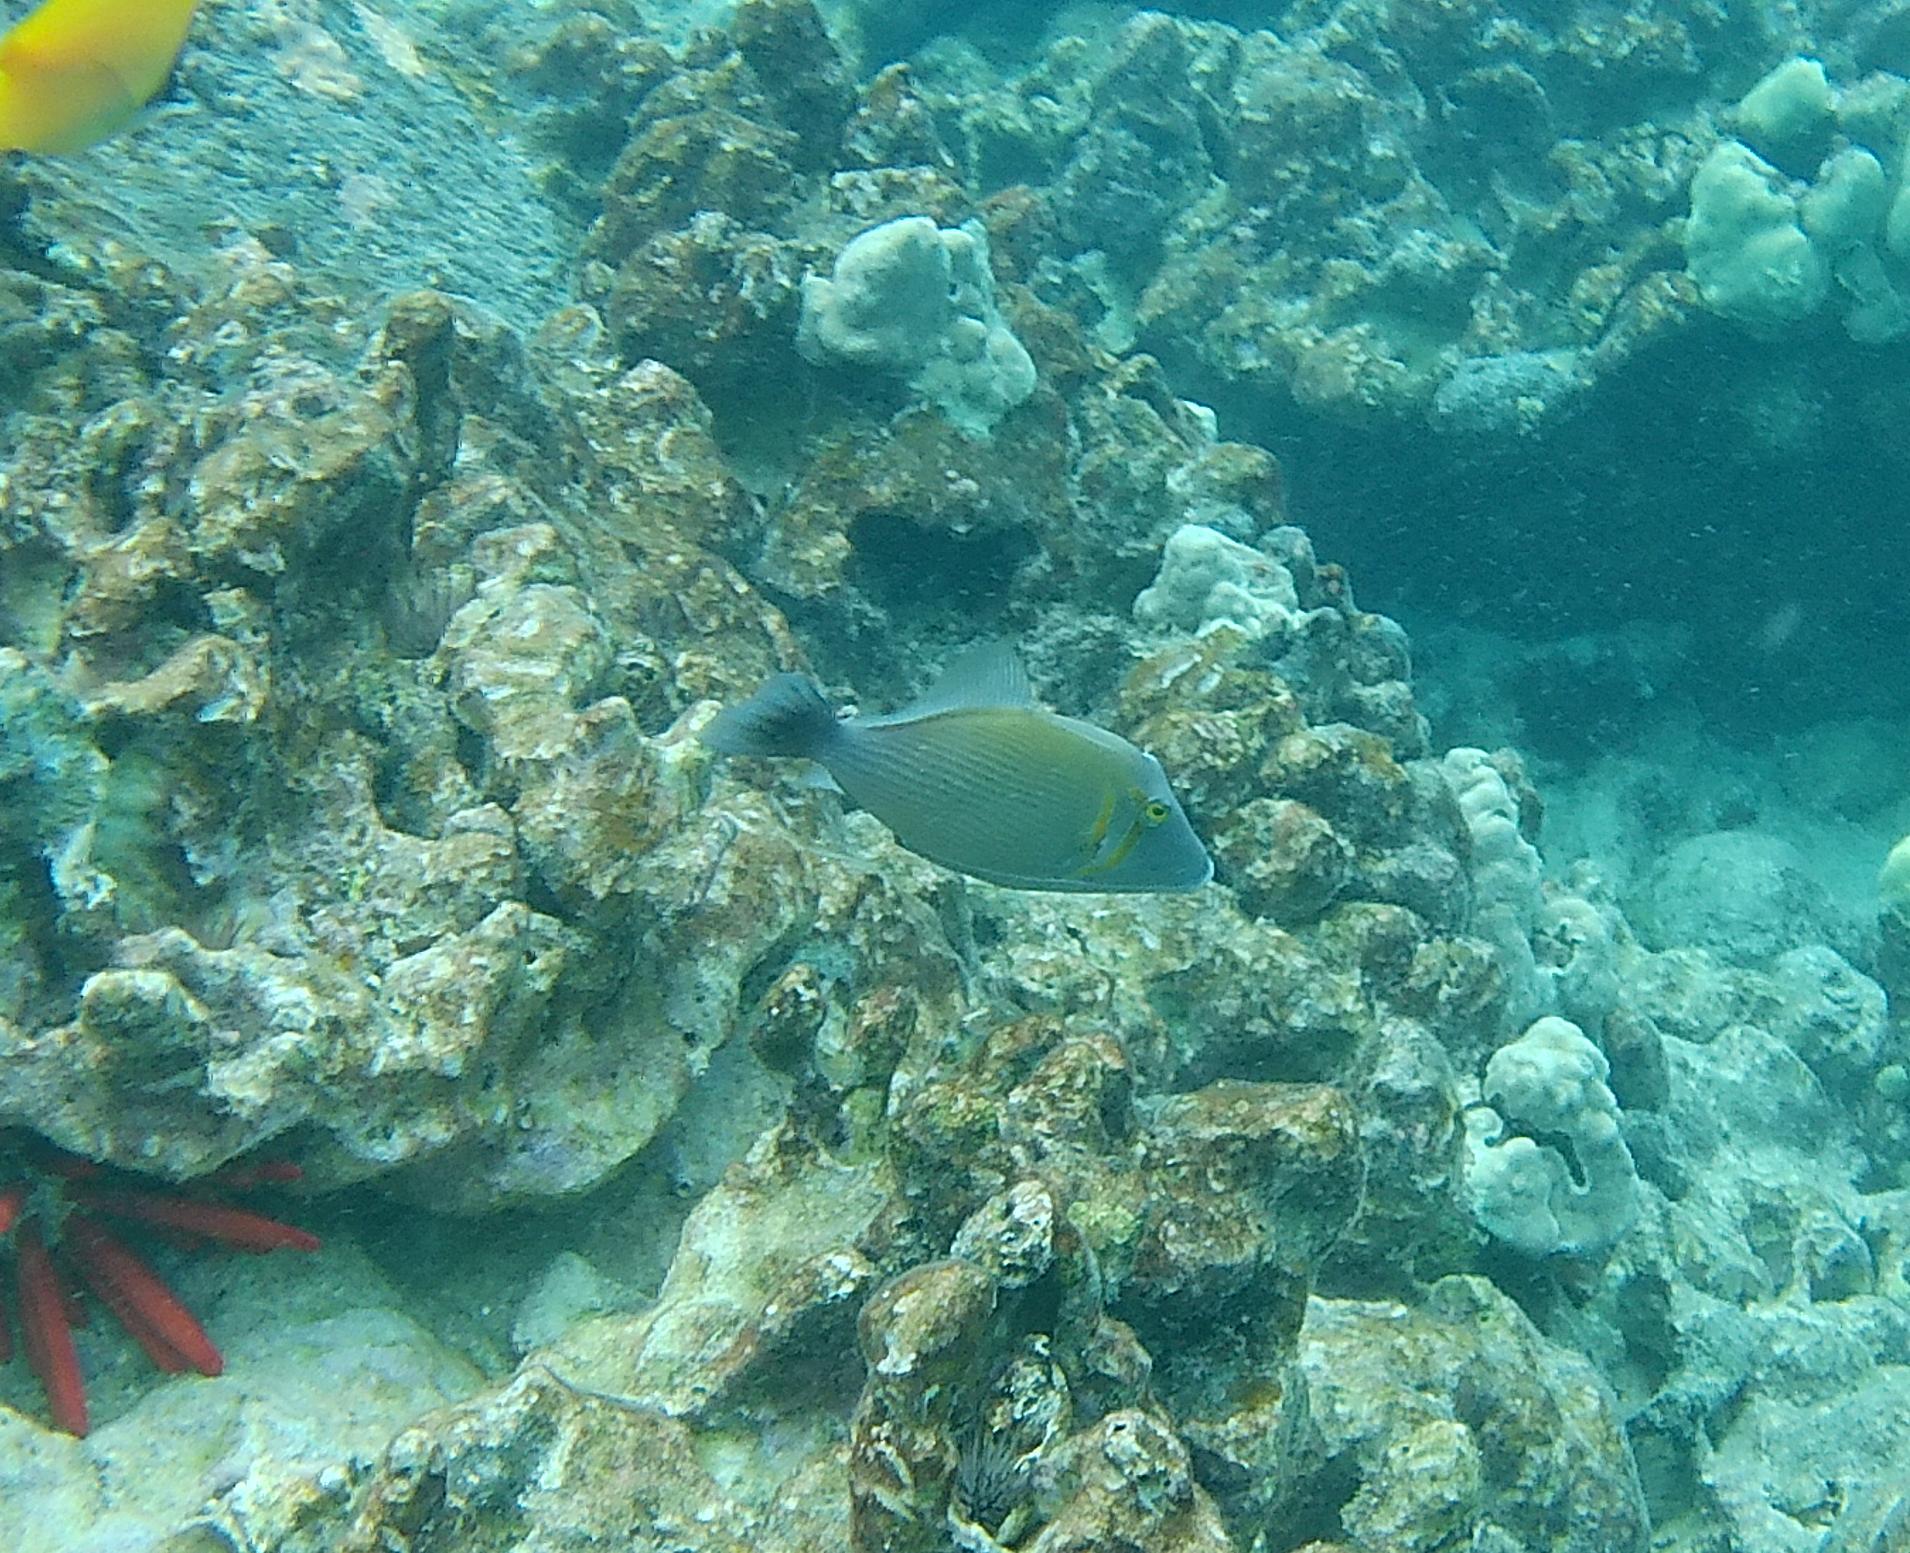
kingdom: Animalia
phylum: Chordata
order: Tetraodontiformes
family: Balistidae
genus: Sufflamen
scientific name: Sufflamen bursa
